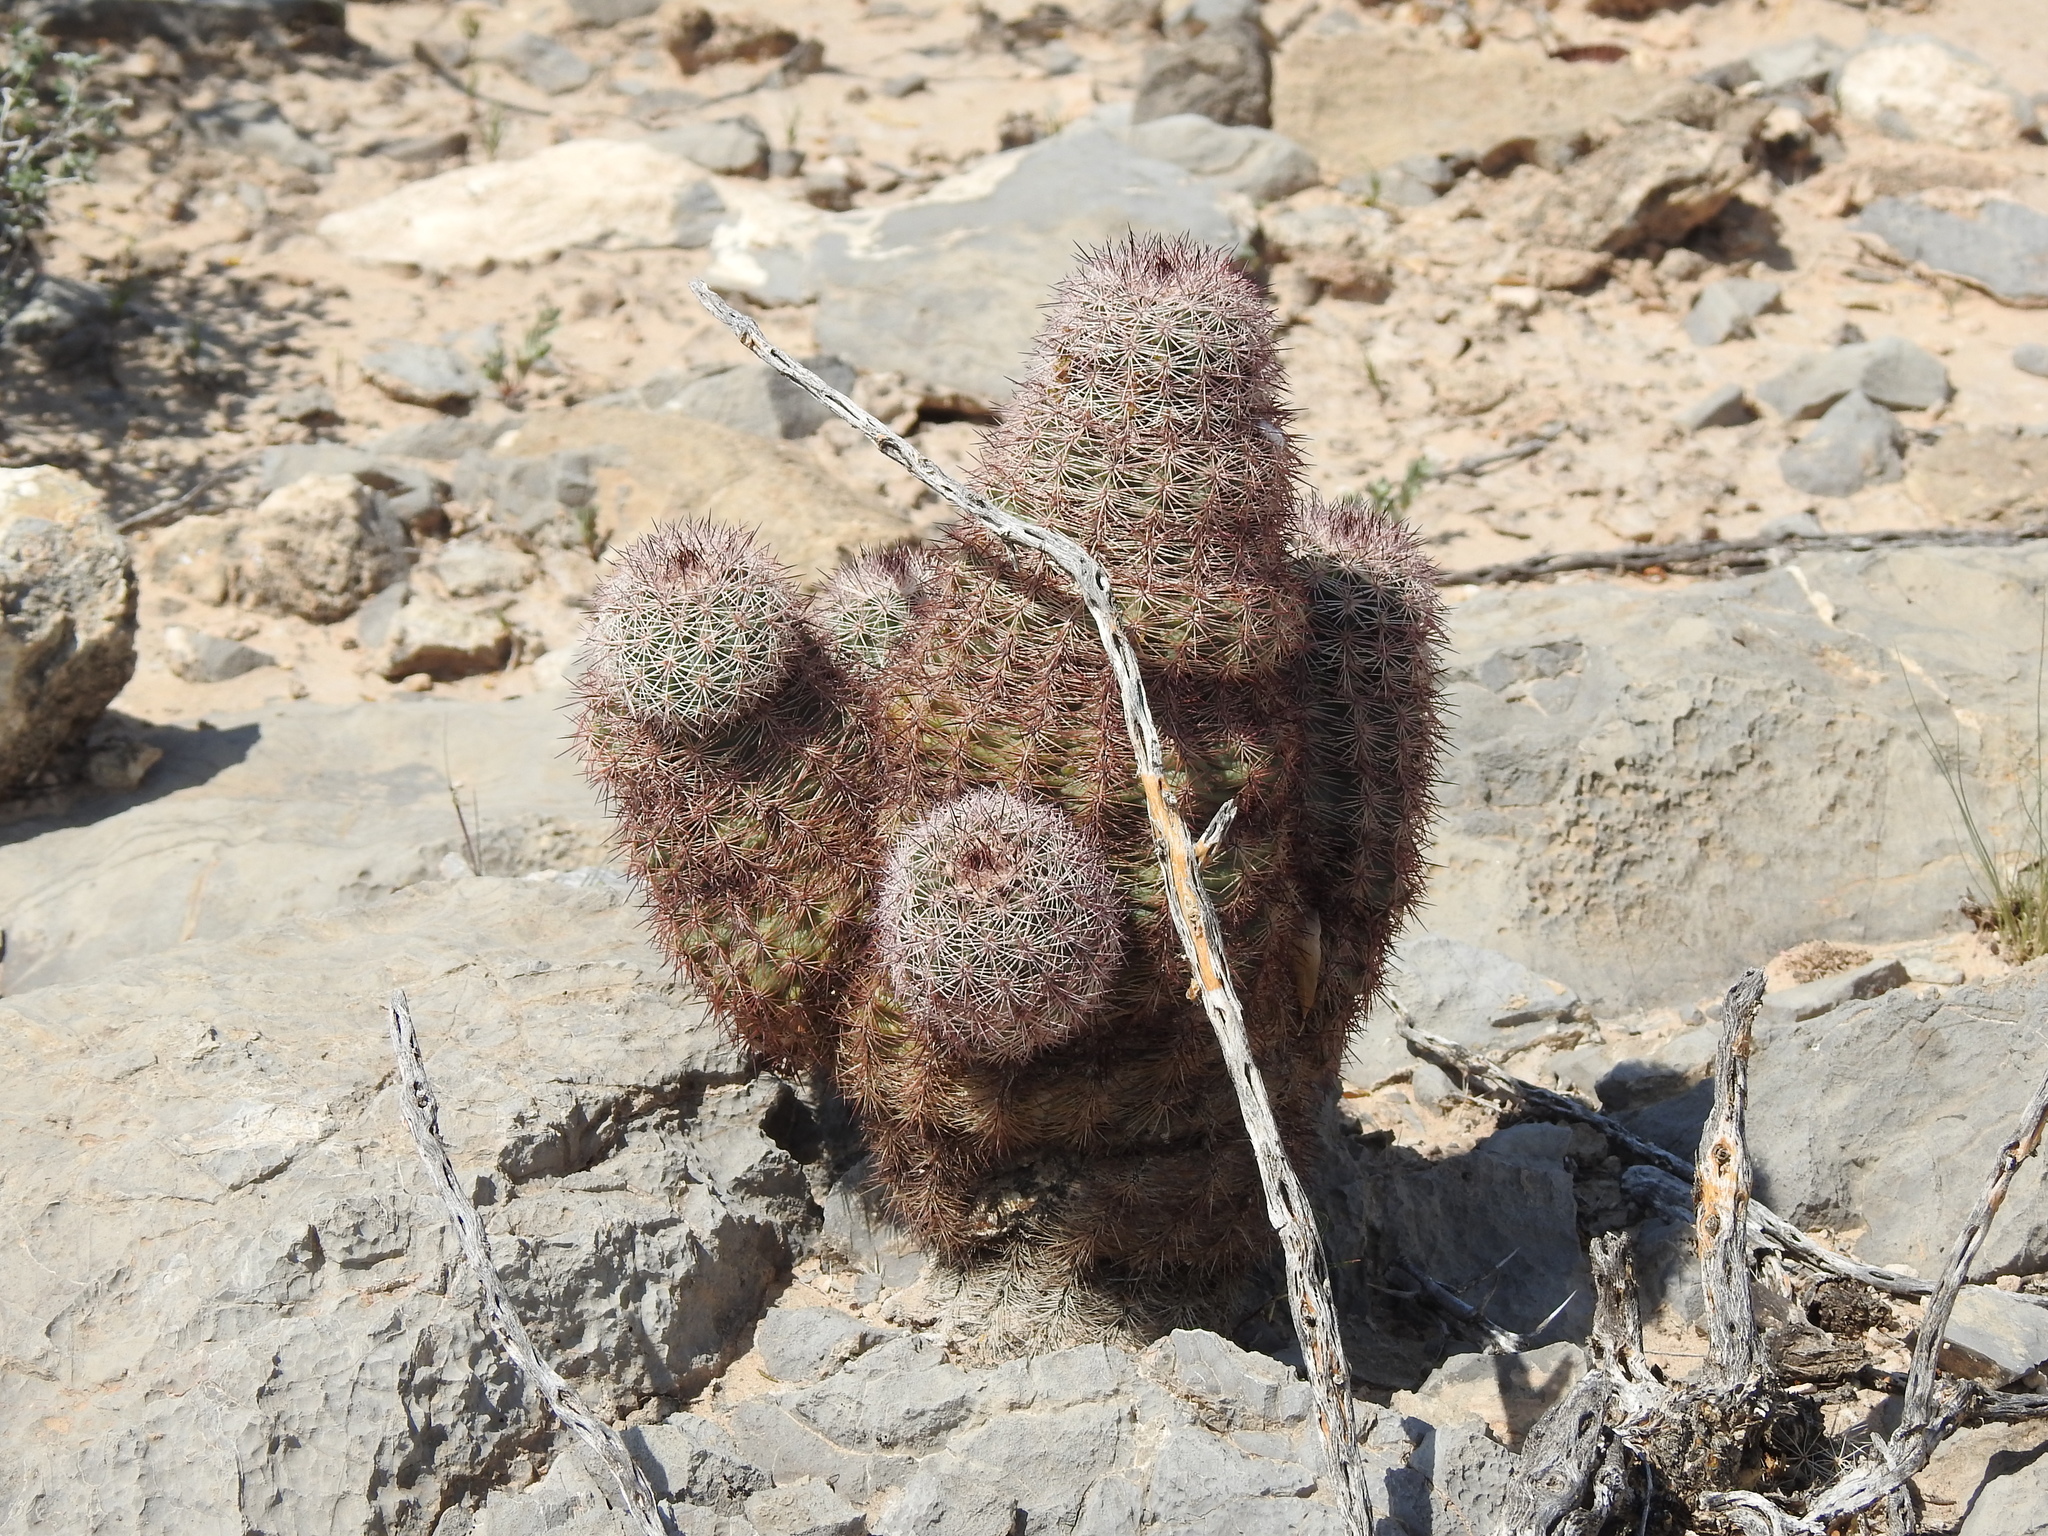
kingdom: Plantae
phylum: Tracheophyta
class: Magnoliopsida
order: Caryophyllales
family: Cactaceae
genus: Echinocereus
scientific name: Echinocereus dasyacanthus
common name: Spiny hedgehog cactus
